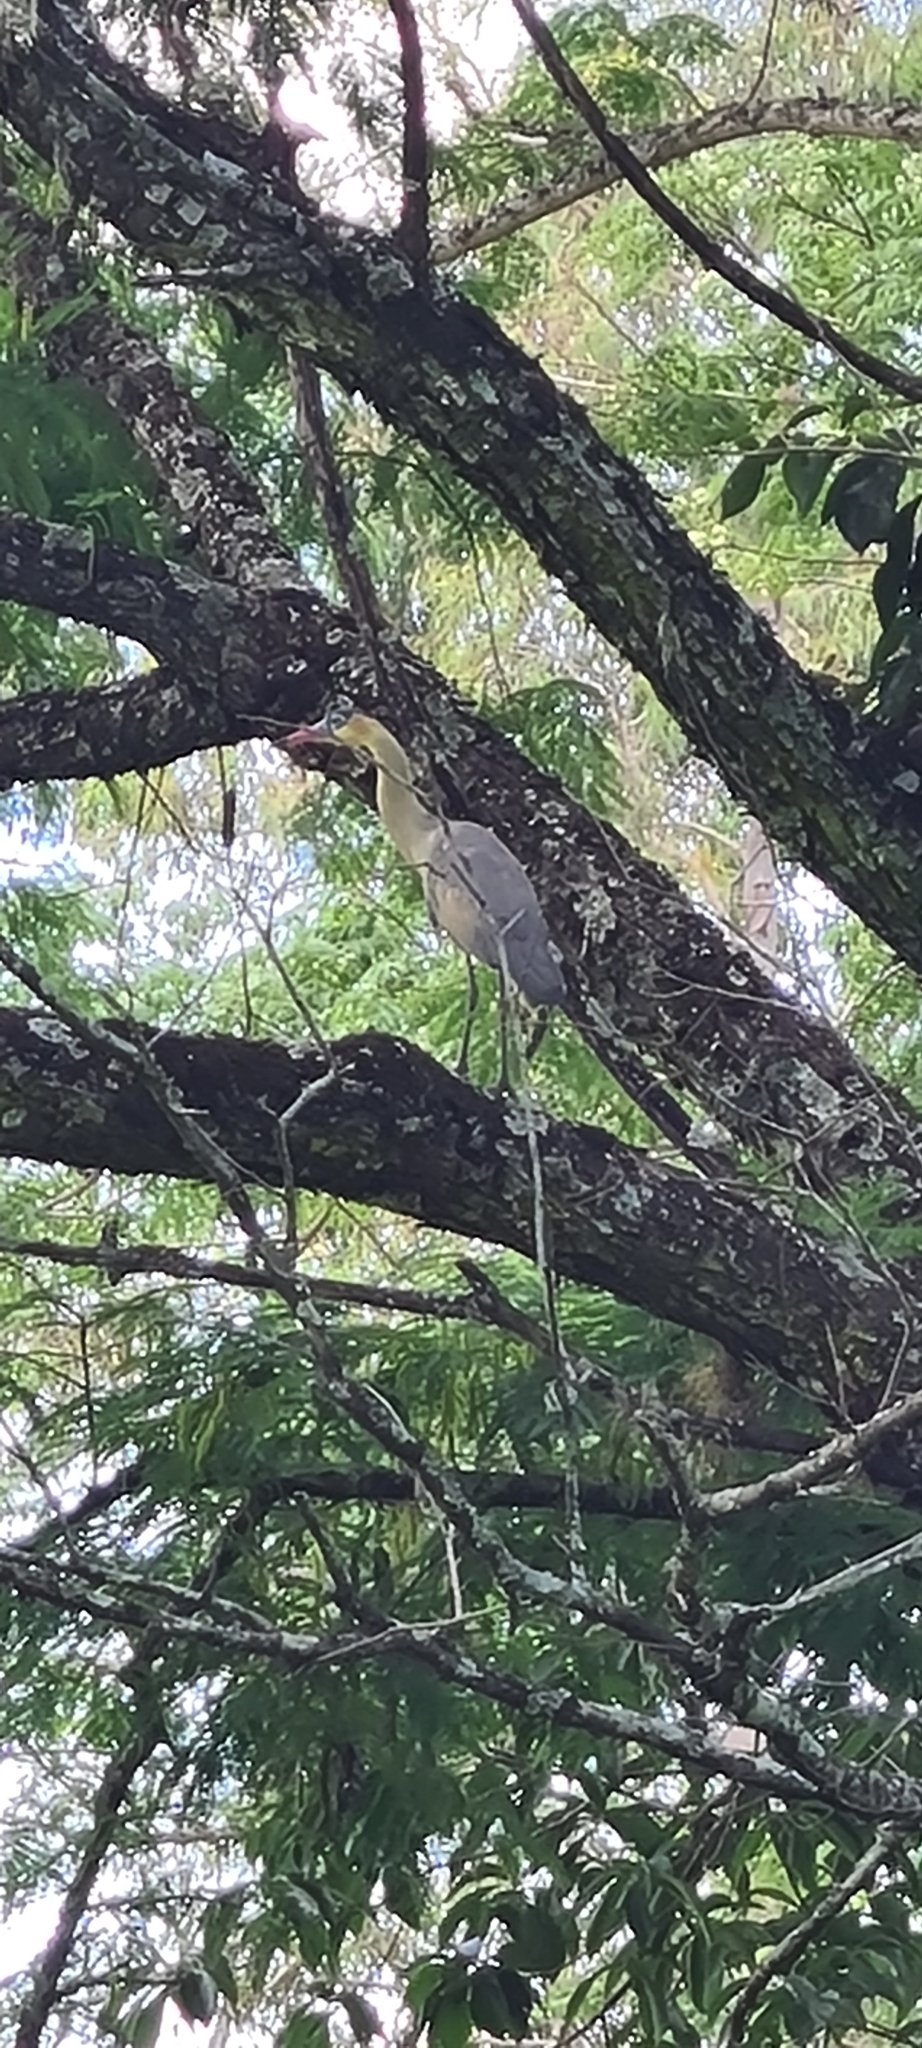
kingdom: Animalia
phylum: Chordata
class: Aves
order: Pelecaniformes
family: Ardeidae
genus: Syrigma
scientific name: Syrigma sibilatrix
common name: Whistling heron
